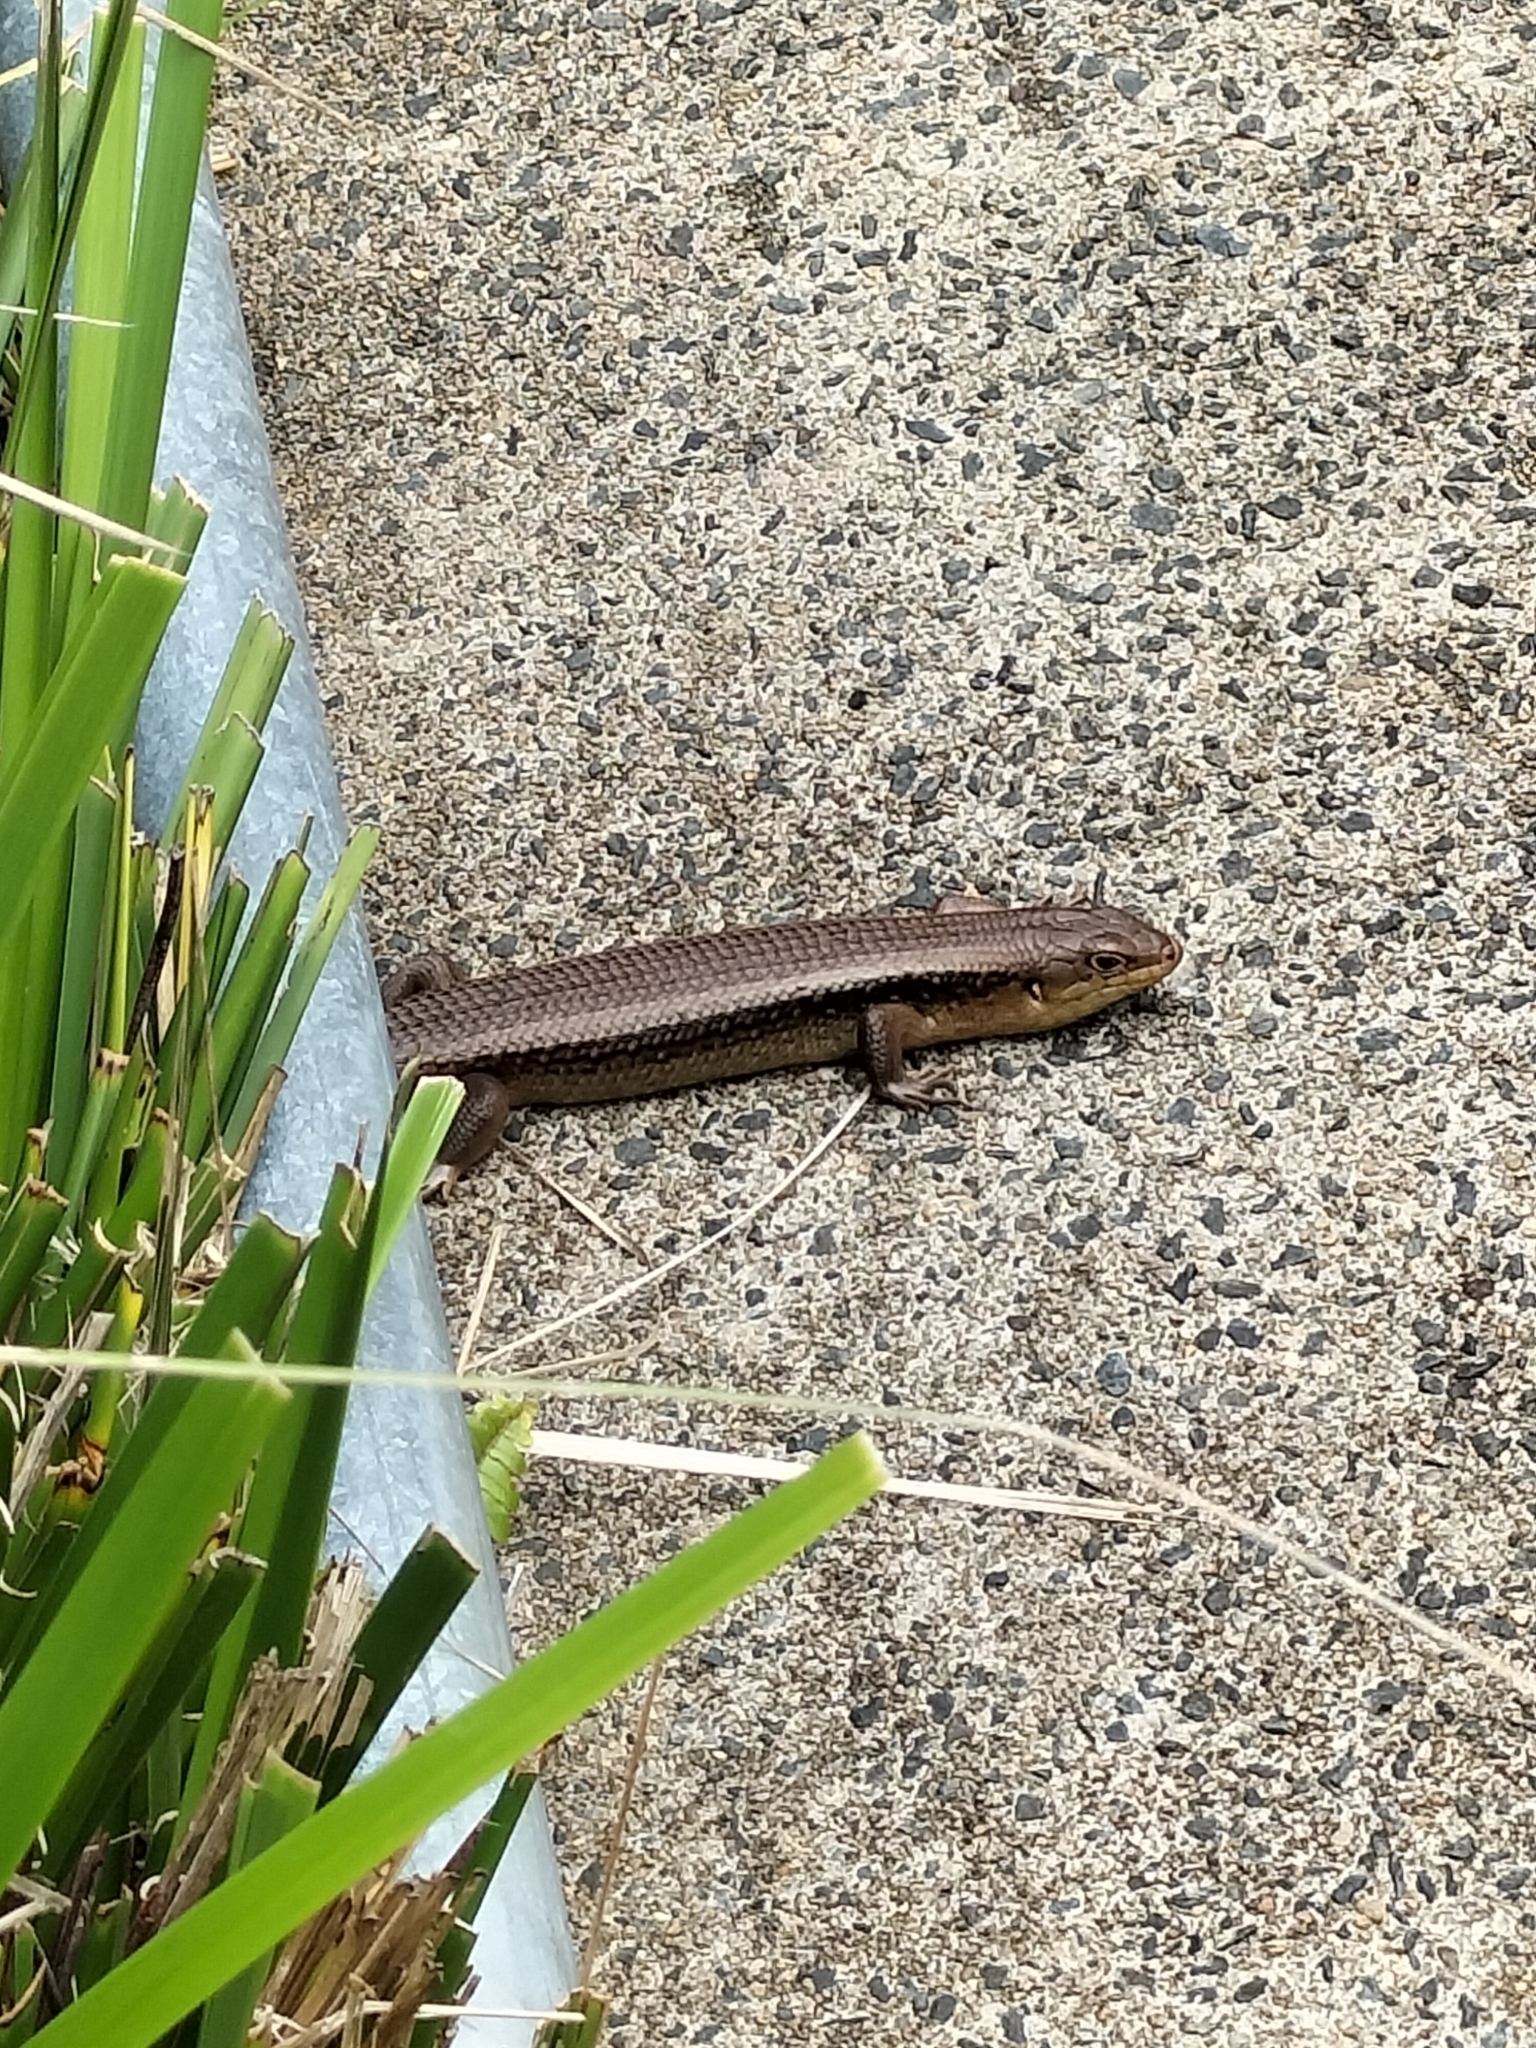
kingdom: Animalia
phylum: Chordata
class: Squamata
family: Scincidae
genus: Bellatorias
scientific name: Bellatorias frerei
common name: Major skink
